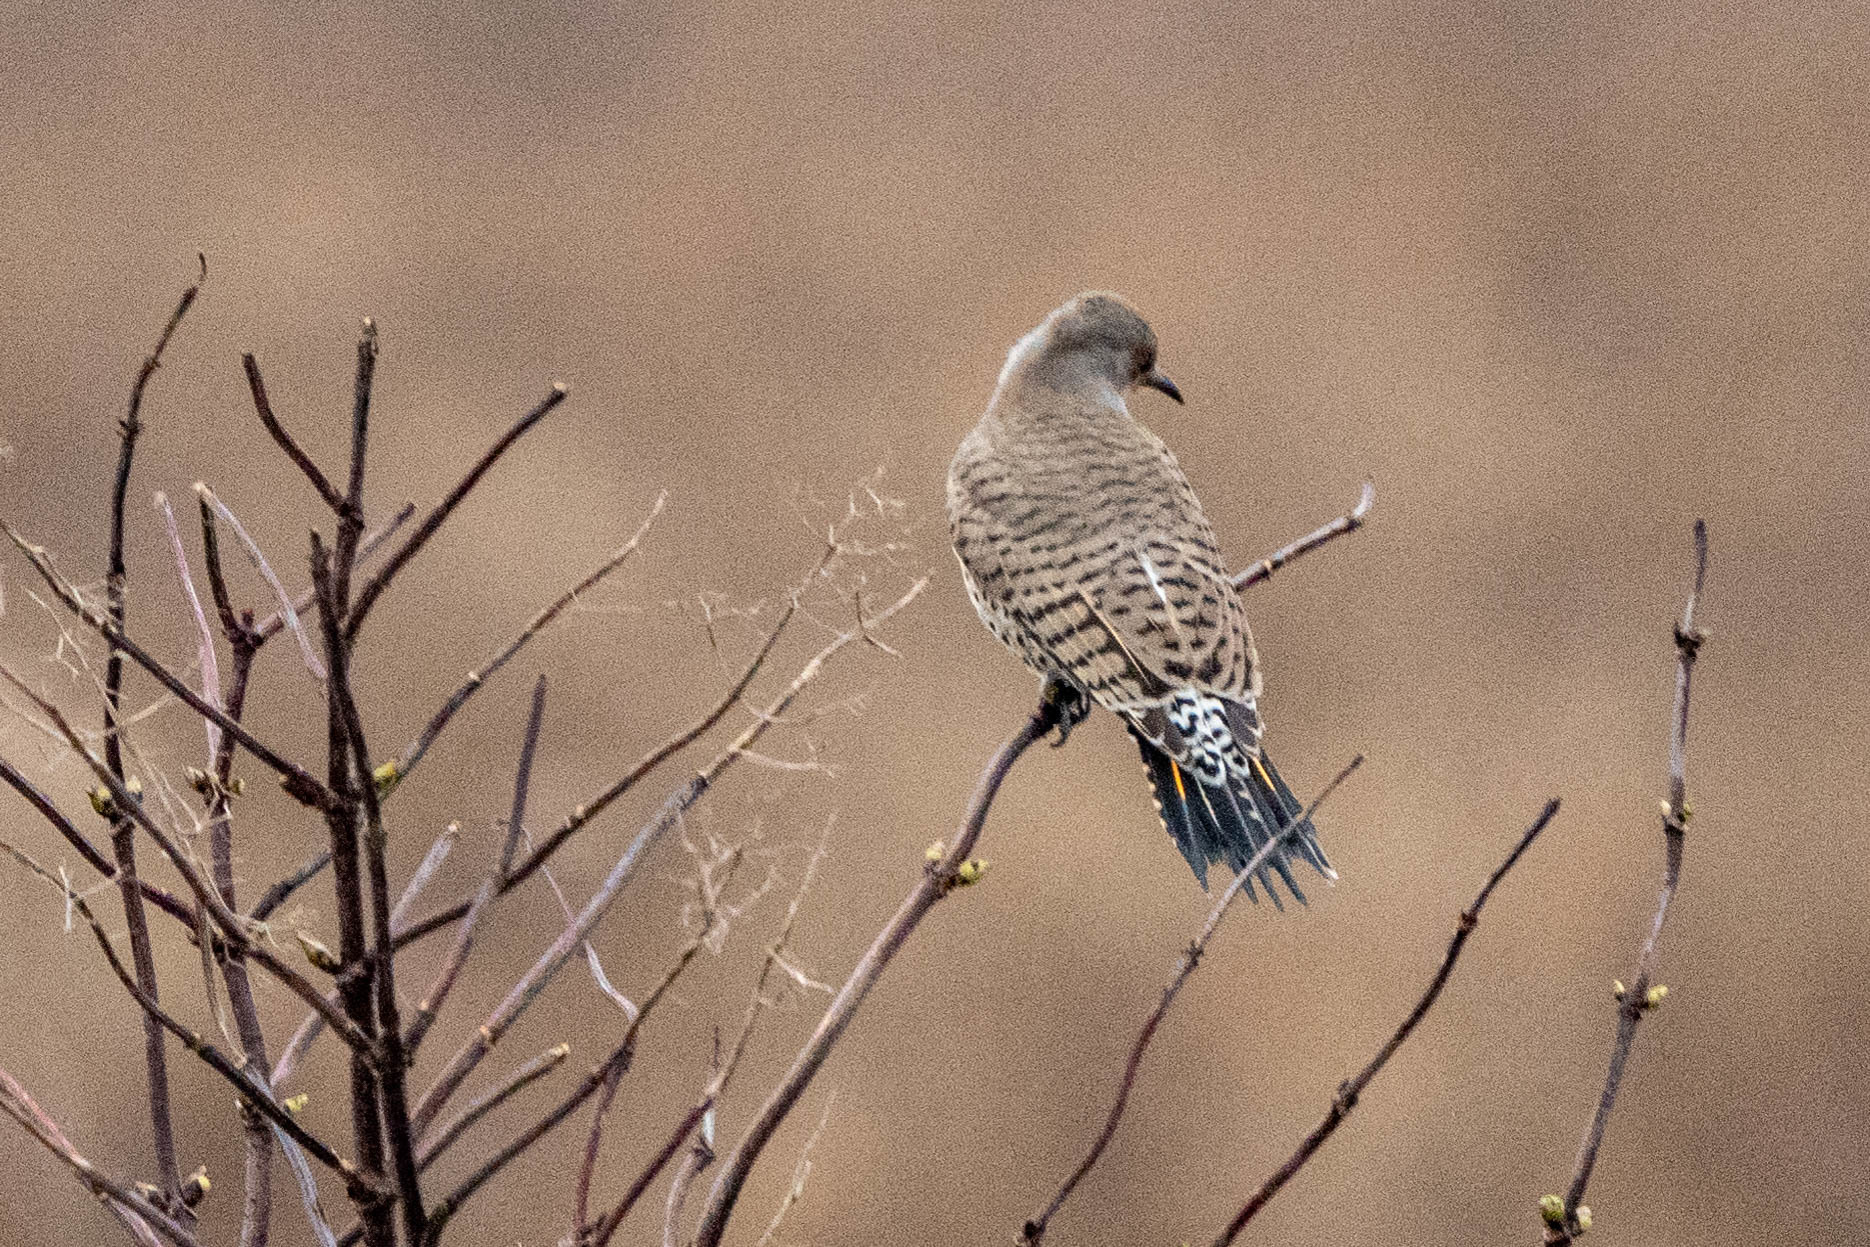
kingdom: Animalia
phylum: Chordata
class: Aves
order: Piciformes
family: Picidae
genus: Colaptes
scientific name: Colaptes auratus
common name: Northern flicker
